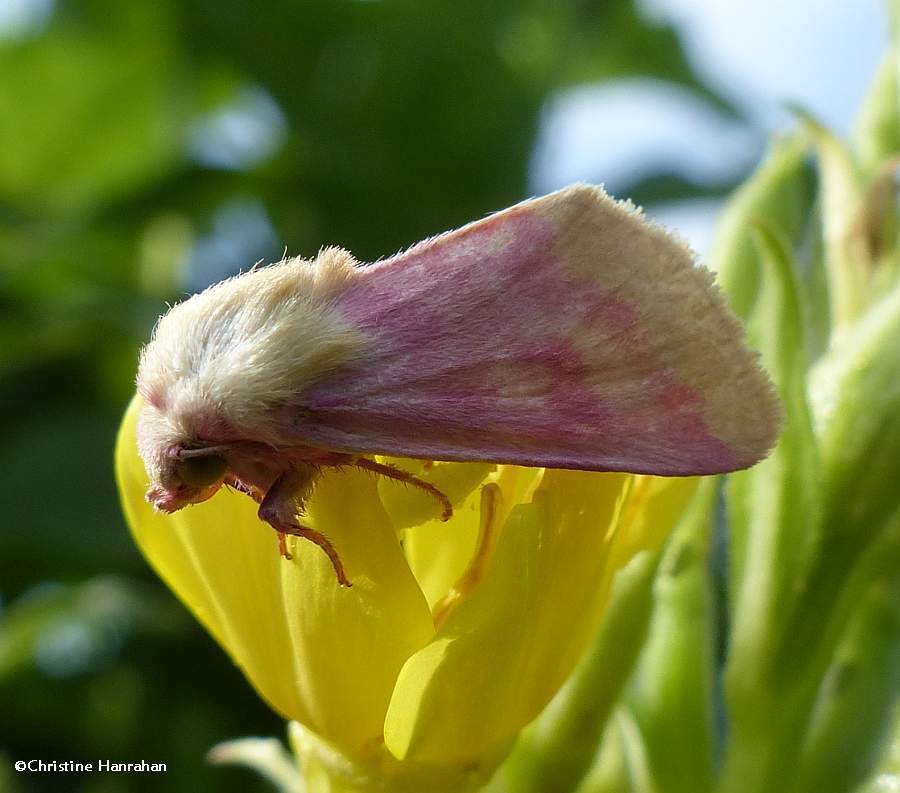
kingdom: Animalia
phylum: Arthropoda
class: Insecta
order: Lepidoptera
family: Noctuidae
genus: Schinia
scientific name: Schinia florida
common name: Primrose moth
